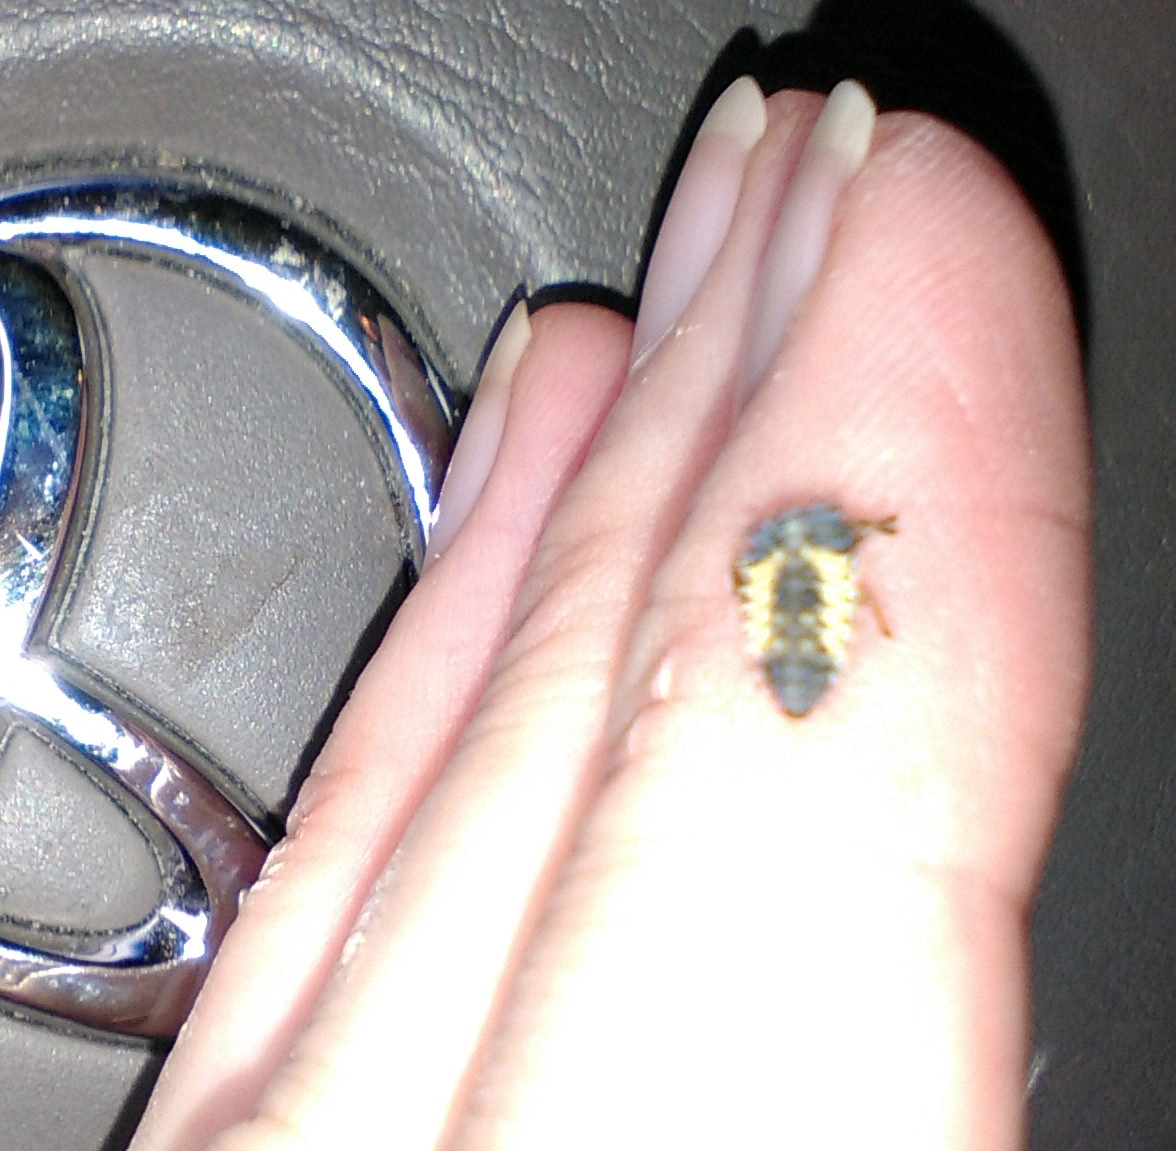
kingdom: Animalia
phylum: Arthropoda
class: Insecta
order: Coleoptera
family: Coccinellidae
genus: Harmonia
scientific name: Harmonia axyridis
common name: Harlequin ladybird
